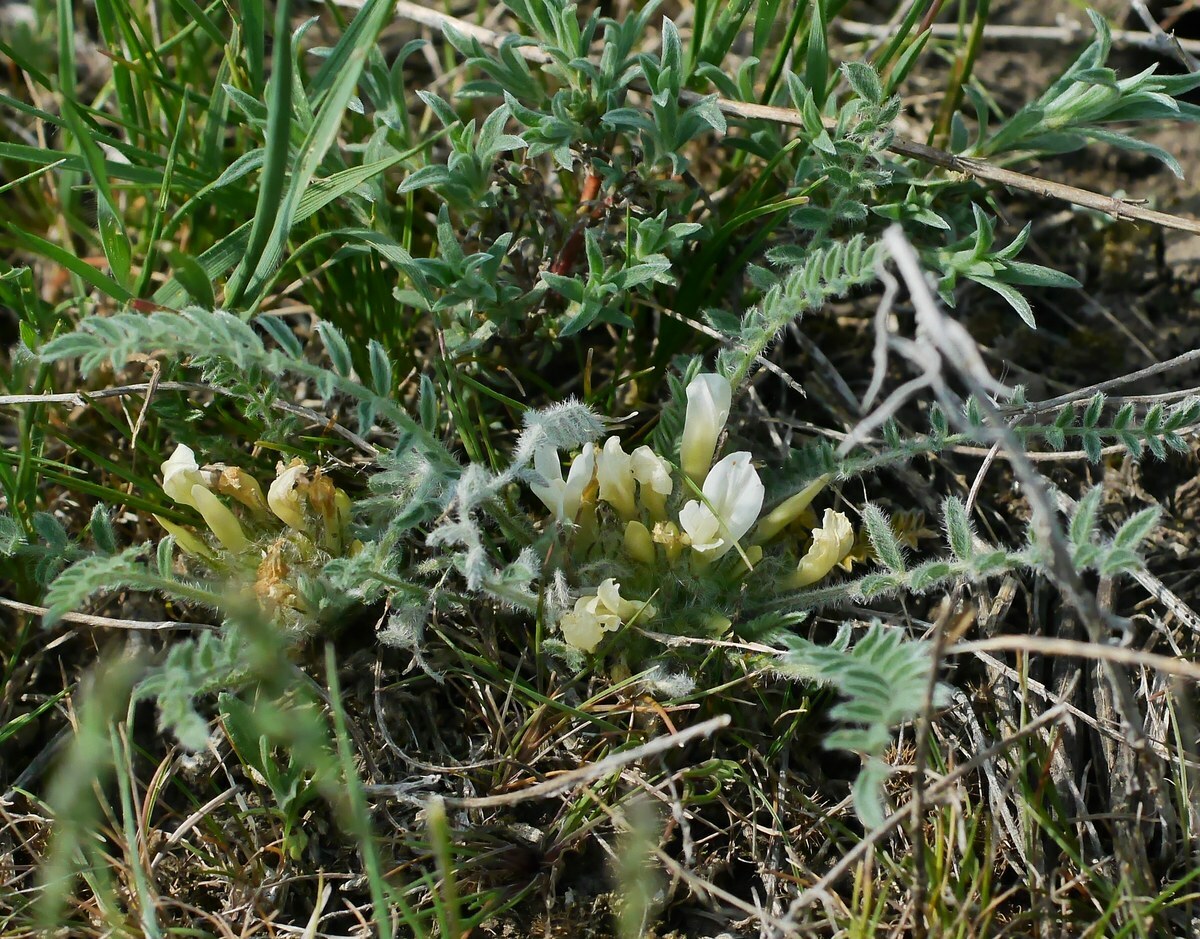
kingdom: Plantae
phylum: Tracheophyta
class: Magnoliopsida
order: Fabales
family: Fabaceae
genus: Astragalus
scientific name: Astragalus dolichophyllus
